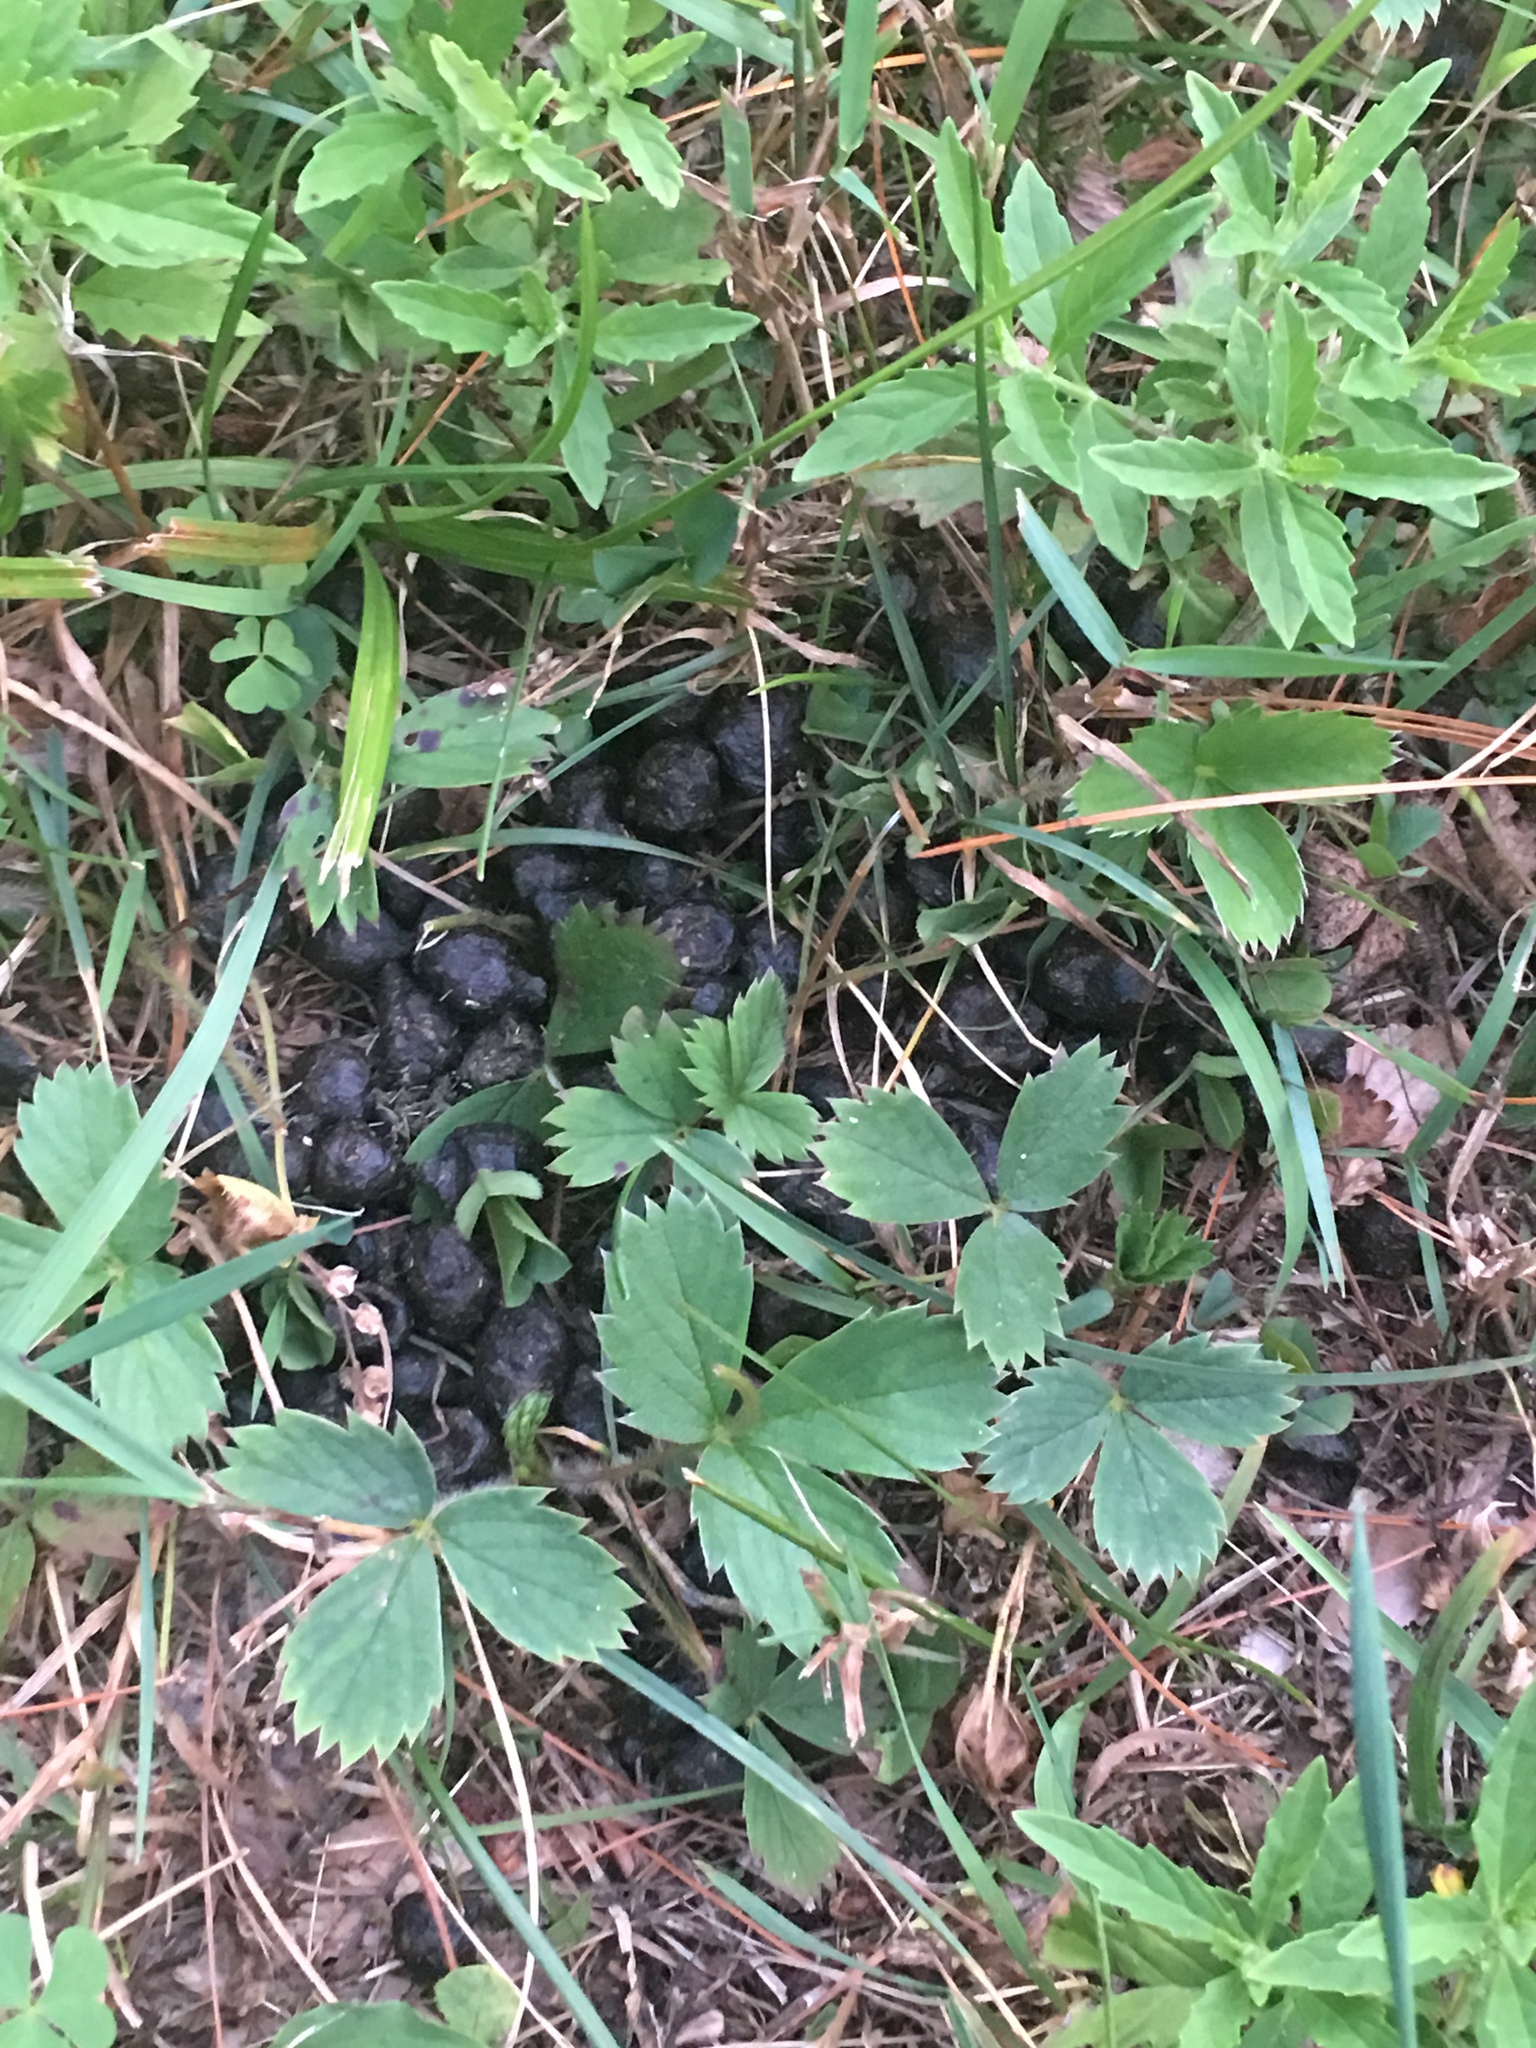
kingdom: Animalia
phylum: Chordata
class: Mammalia
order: Artiodactyla
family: Cervidae
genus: Odocoileus
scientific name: Odocoileus virginianus
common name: White-tailed deer
